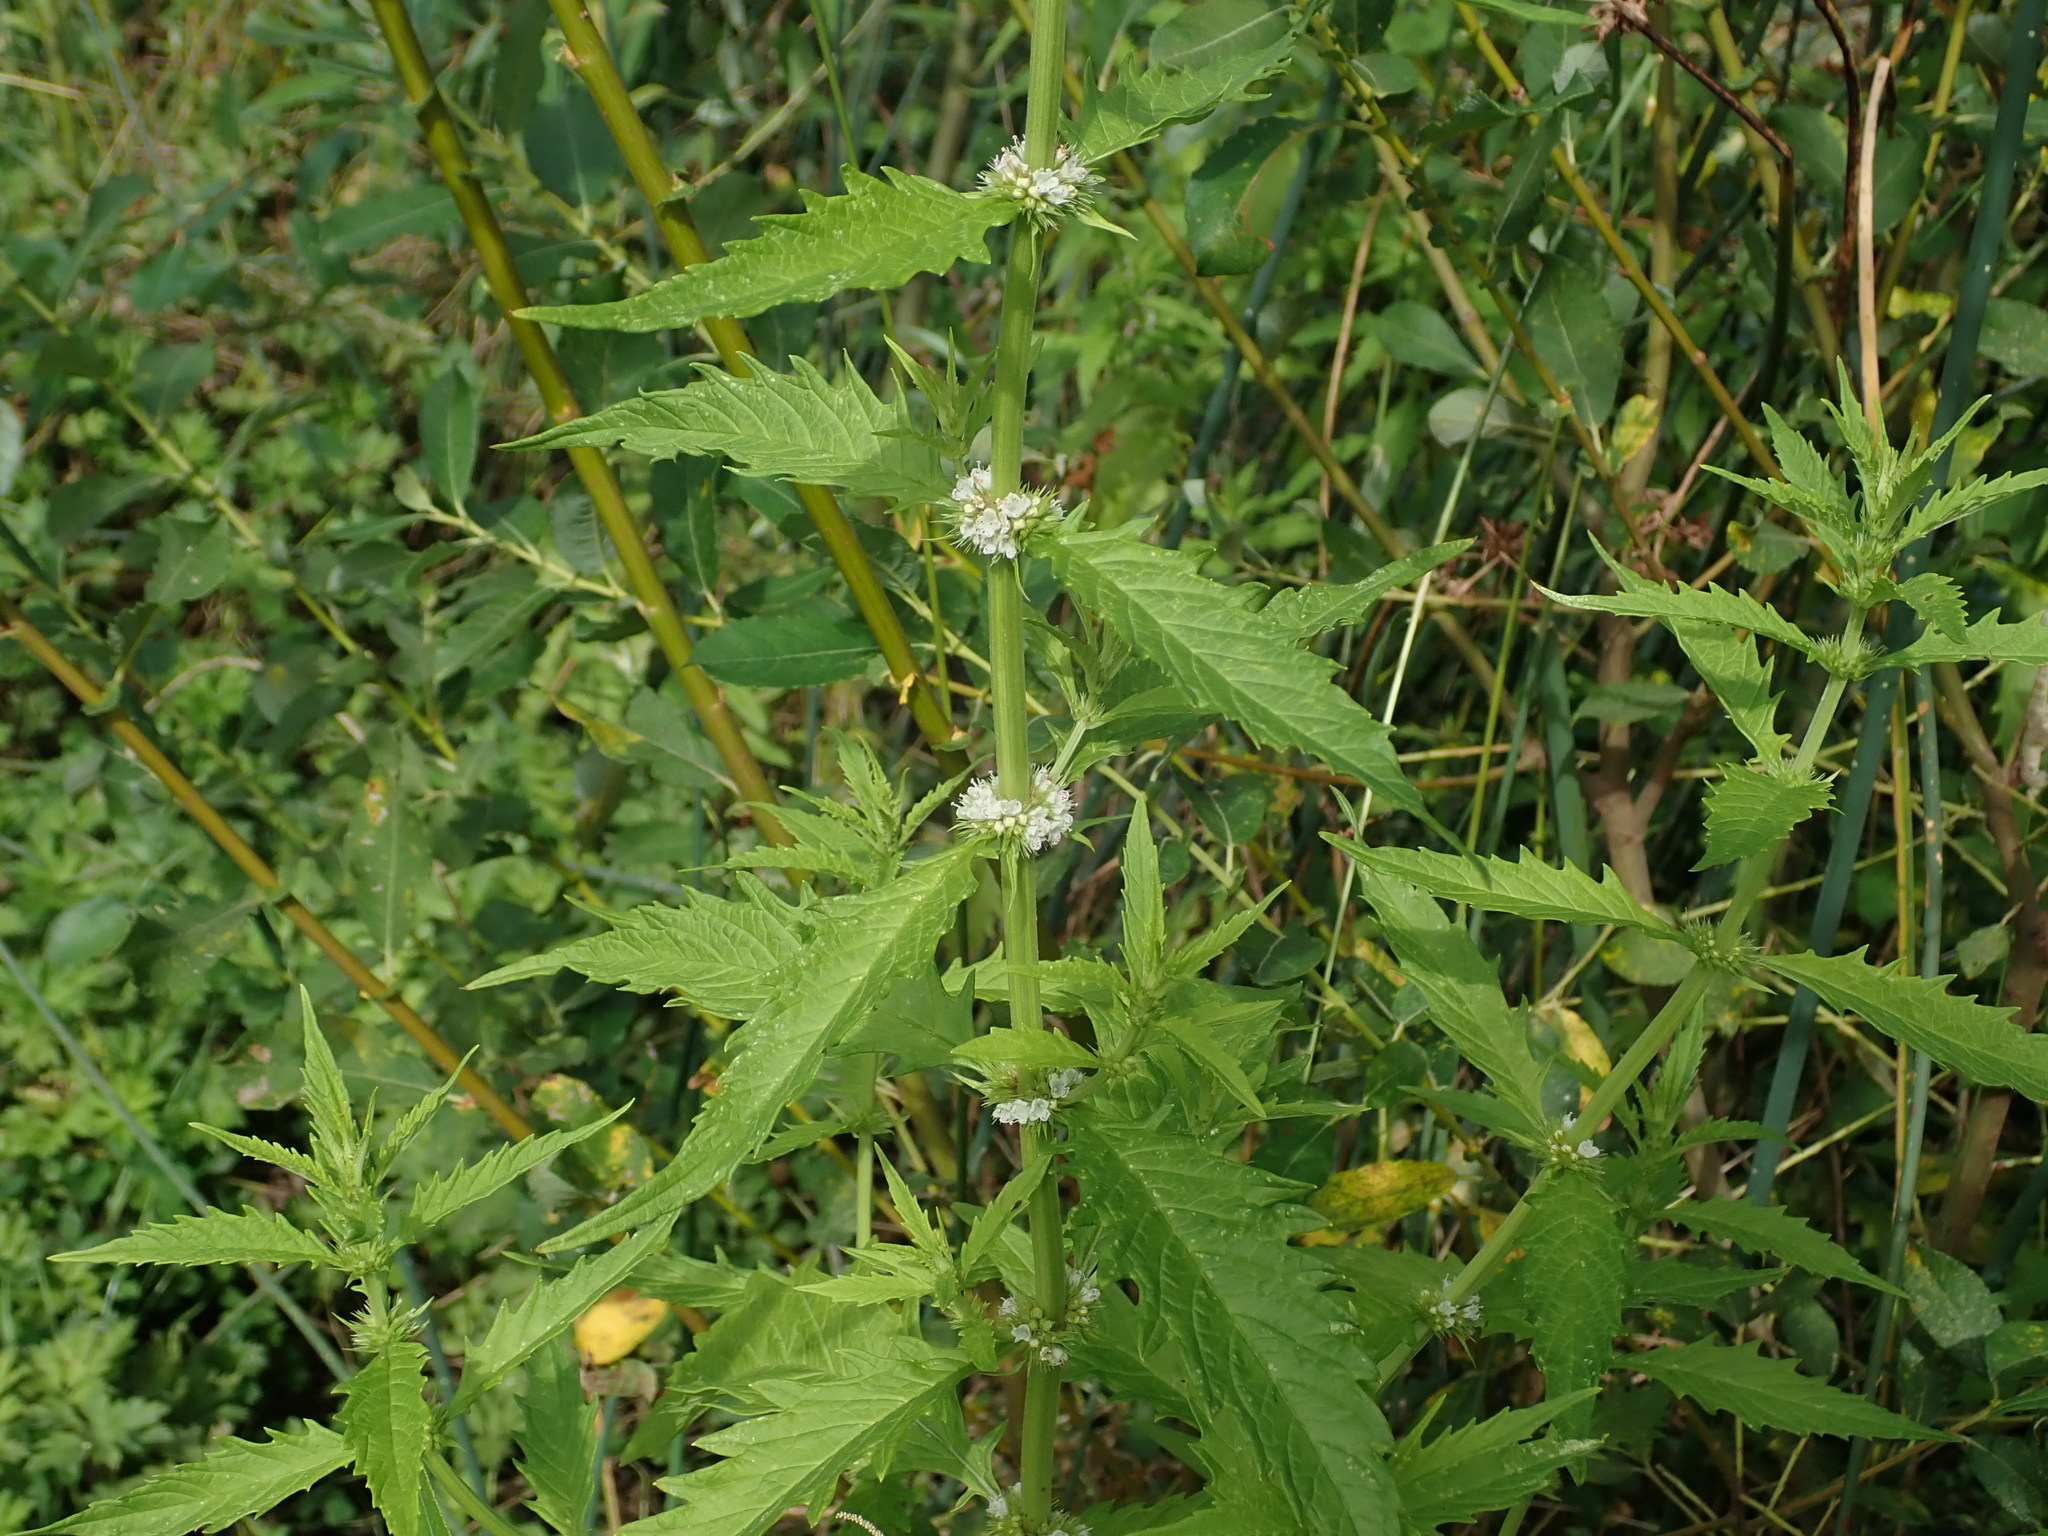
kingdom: Plantae
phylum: Tracheophyta
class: Magnoliopsida
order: Lamiales
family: Lamiaceae
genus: Lycopus
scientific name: Lycopus europaeus
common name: European bugleweed
